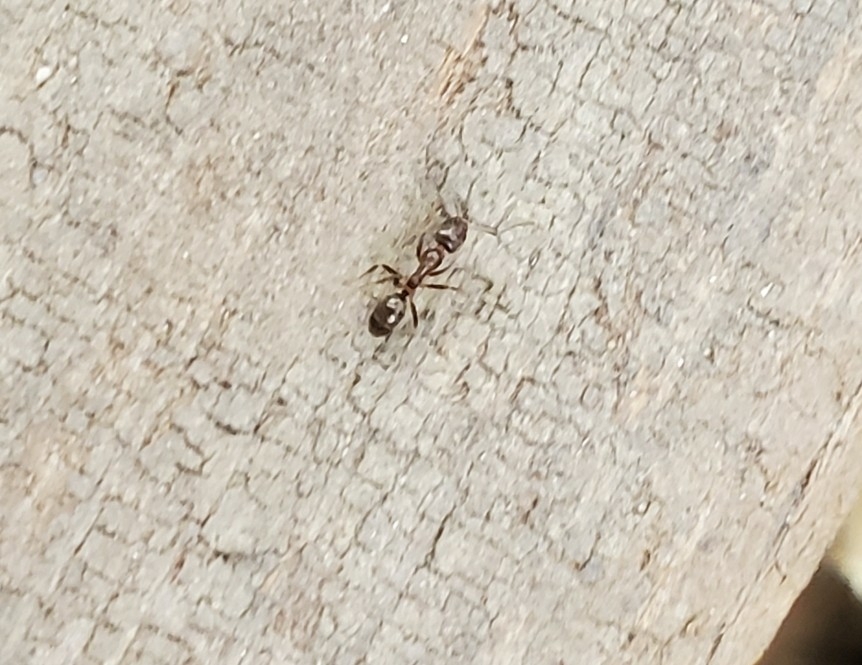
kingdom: Animalia
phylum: Arthropoda
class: Insecta
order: Hymenoptera
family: Formicidae
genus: Linepithema
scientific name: Linepithema humile
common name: Argentine ant
